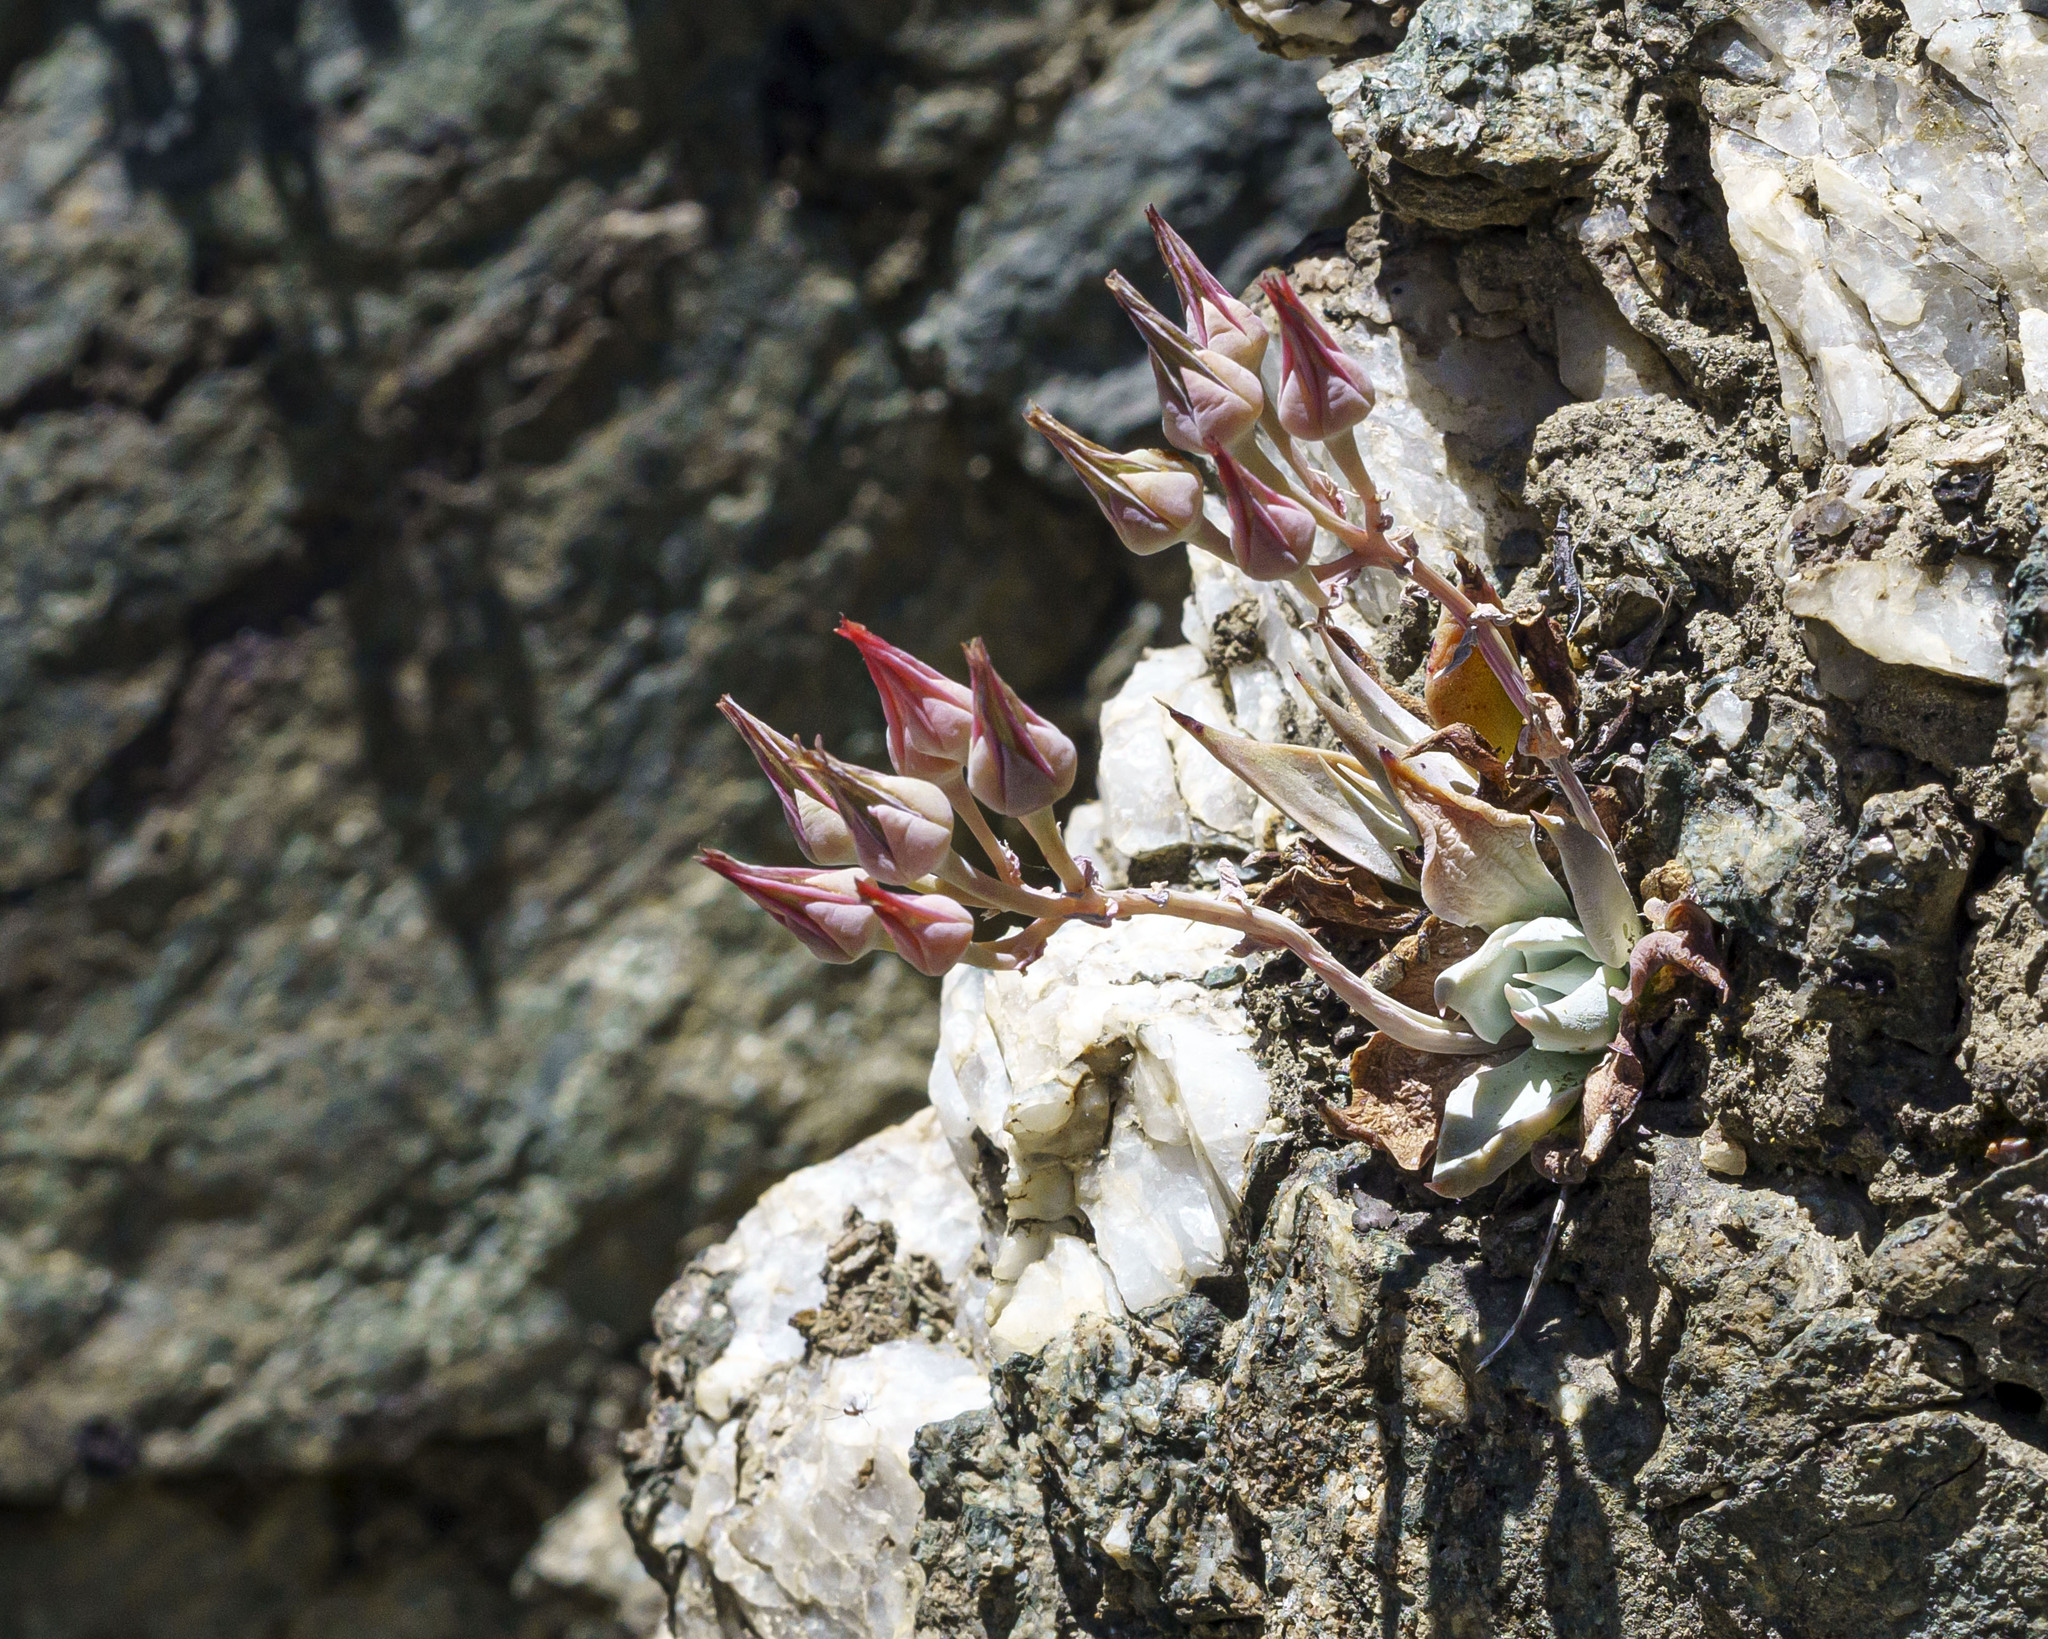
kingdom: Plantae
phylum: Tracheophyta
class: Magnoliopsida
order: Saxifragales
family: Crassulaceae
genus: Dudleya
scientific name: Dudleya cymosa
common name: Canyon dudleya
